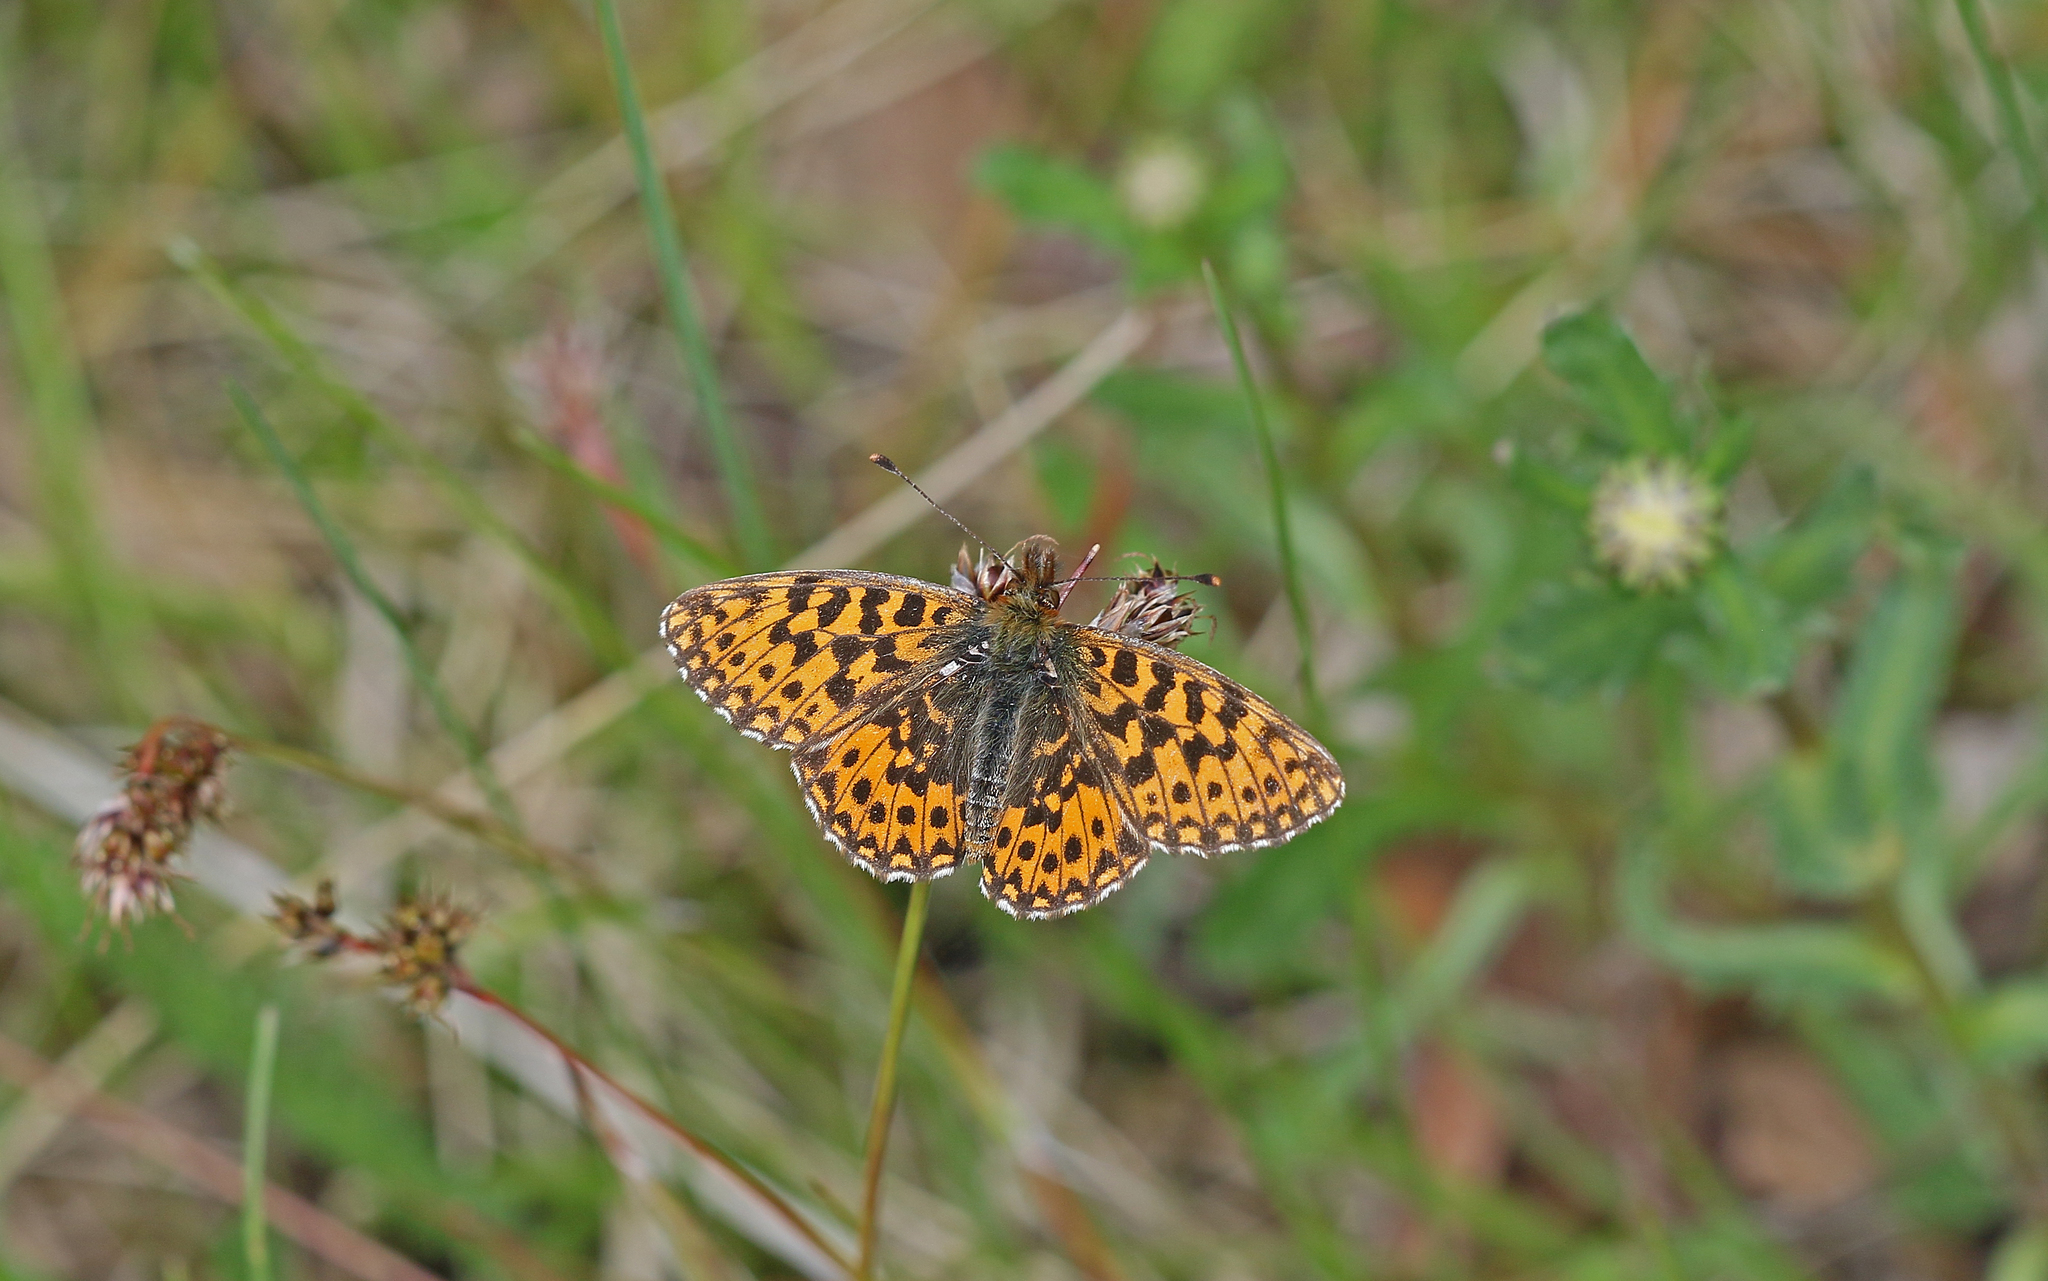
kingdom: Animalia
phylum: Arthropoda
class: Insecta
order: Lepidoptera
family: Nymphalidae
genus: Boloria
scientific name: Boloria dia
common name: Weaver's fritillary
